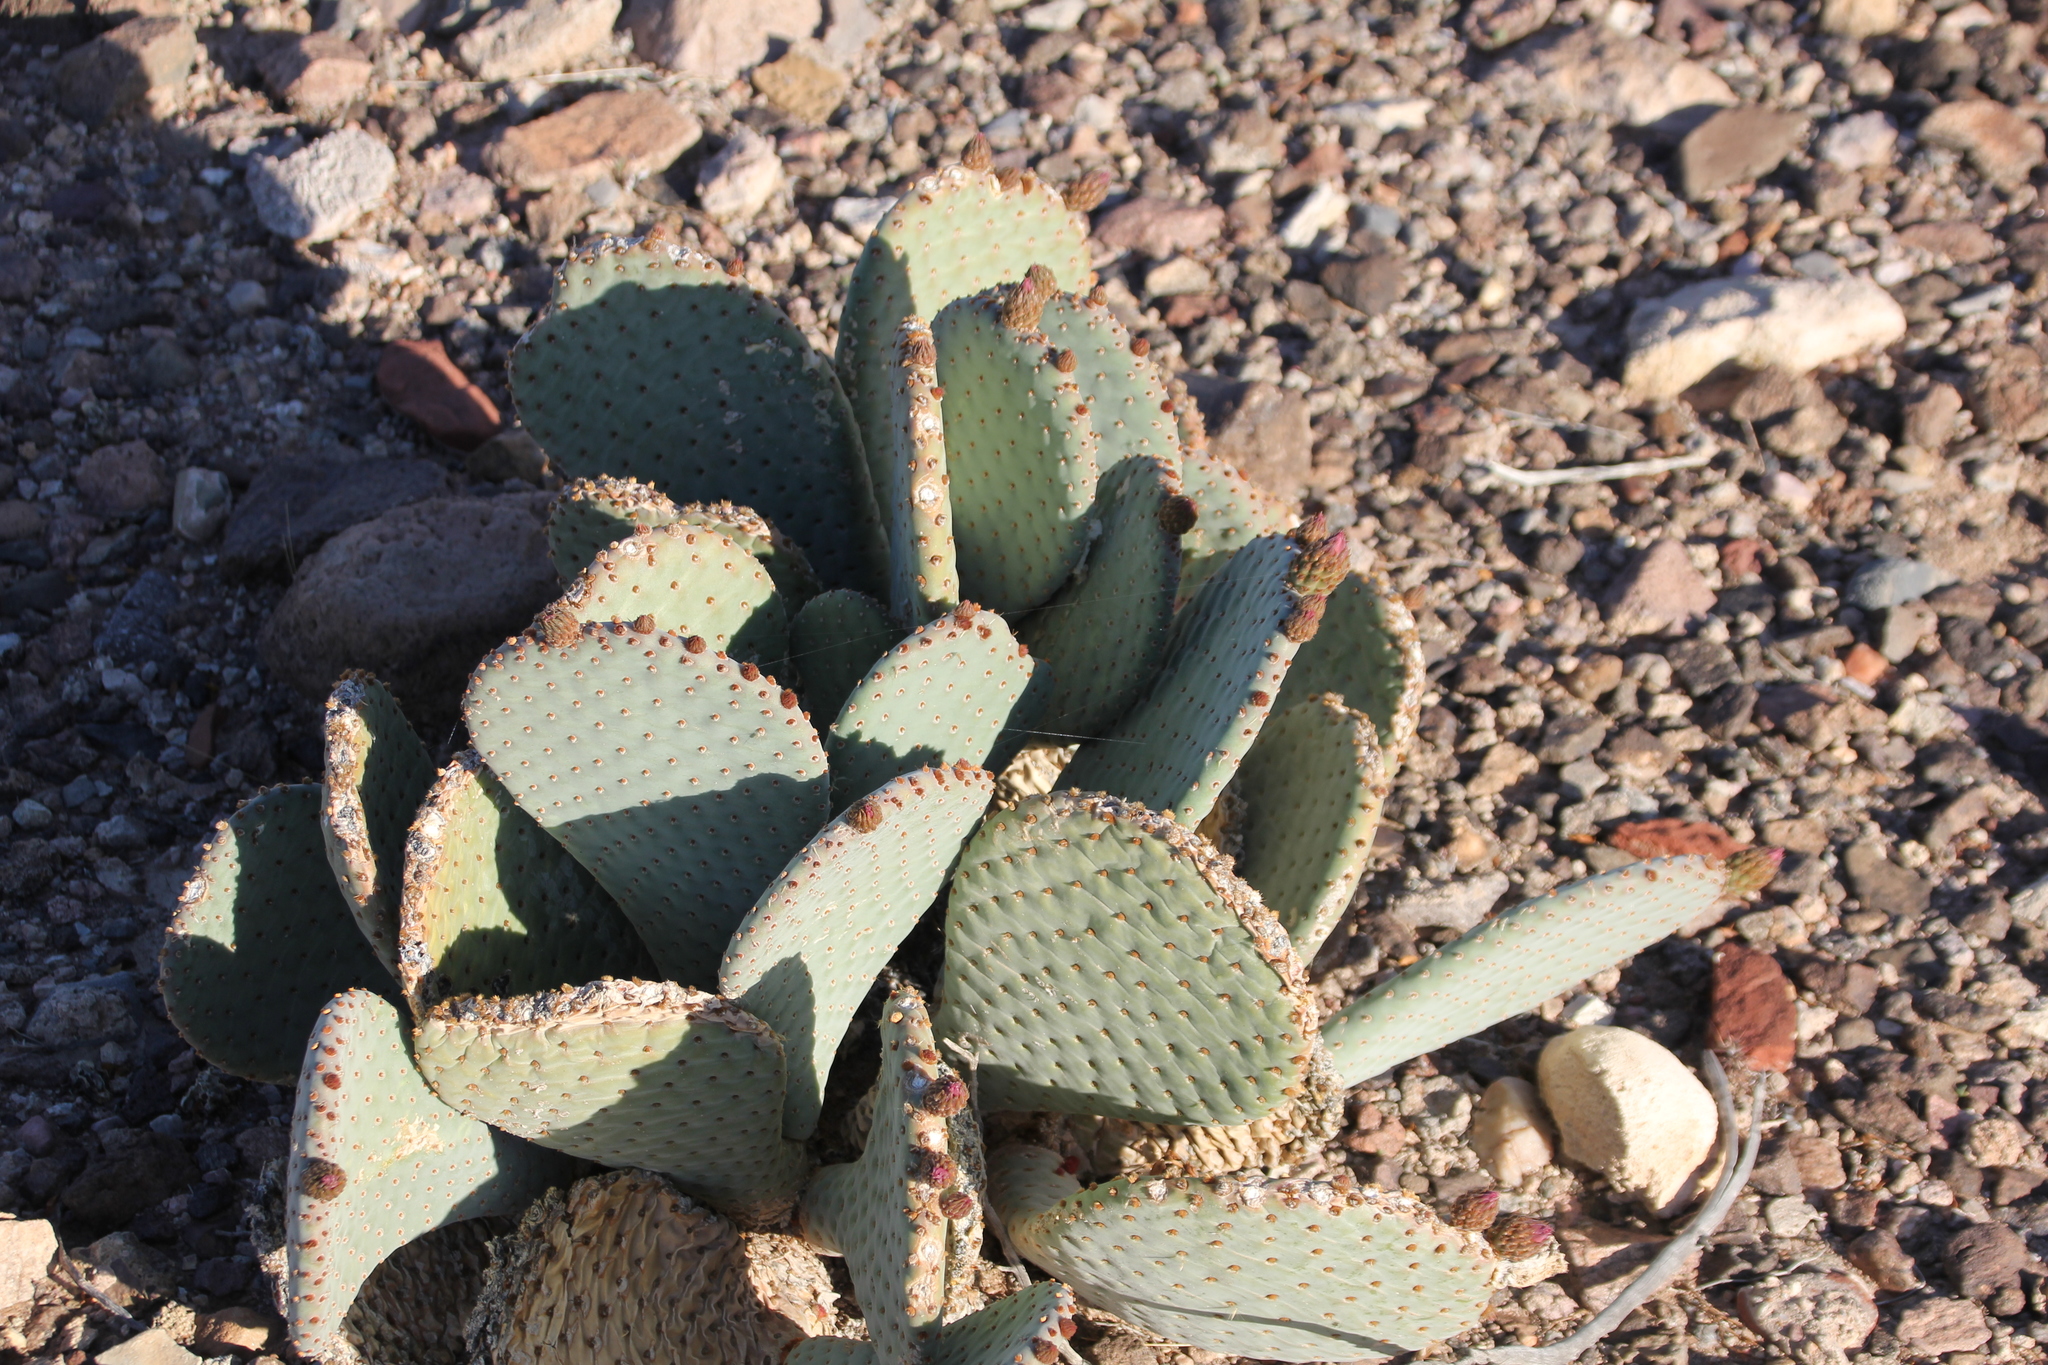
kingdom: Plantae
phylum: Tracheophyta
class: Magnoliopsida
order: Caryophyllales
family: Cactaceae
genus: Opuntia
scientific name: Opuntia basilaris
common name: Beavertail prickly-pear
